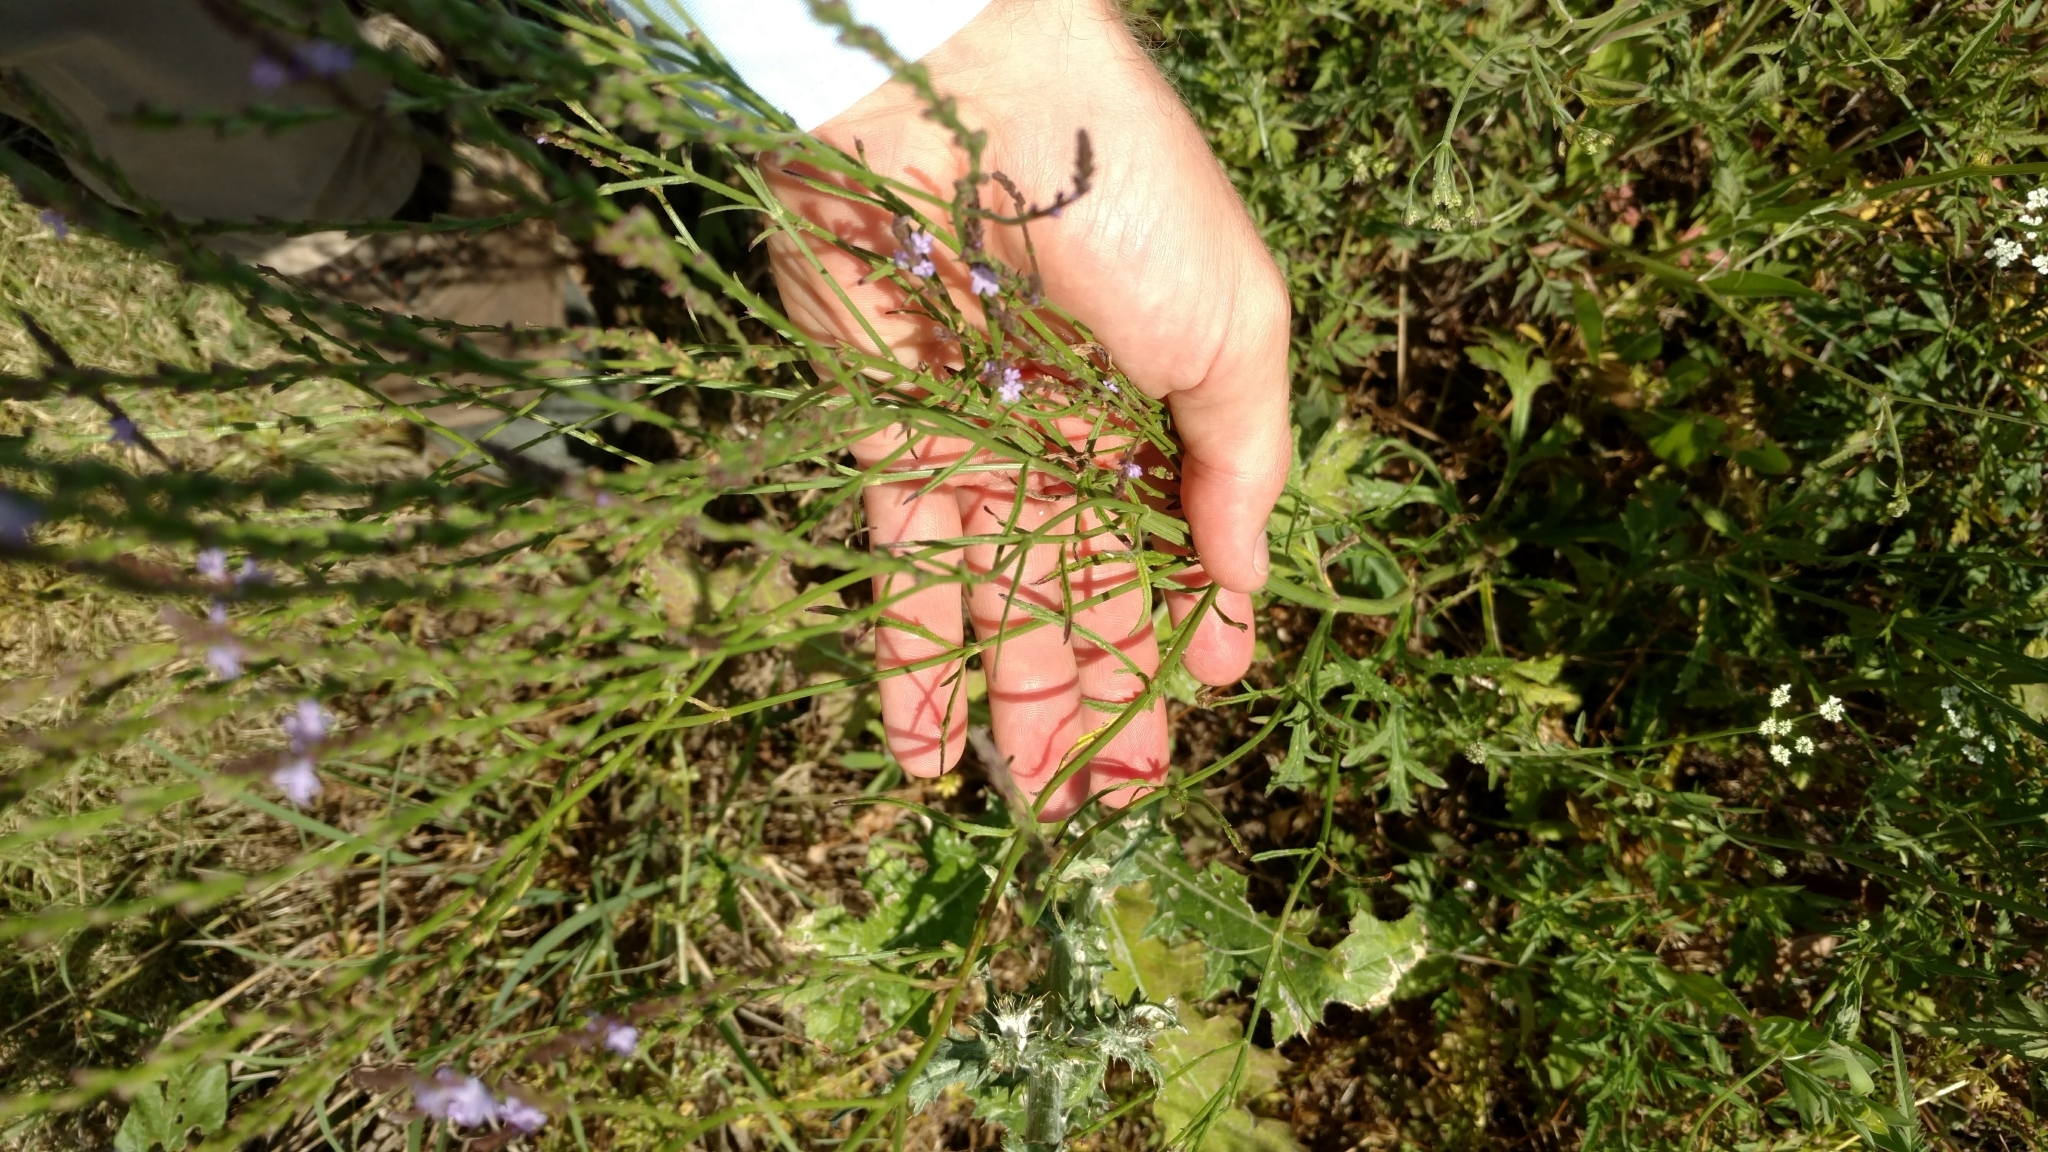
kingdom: Plantae
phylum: Tracheophyta
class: Magnoliopsida
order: Lamiales
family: Verbenaceae
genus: Verbena
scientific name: Verbena halei
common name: Texas vervain
